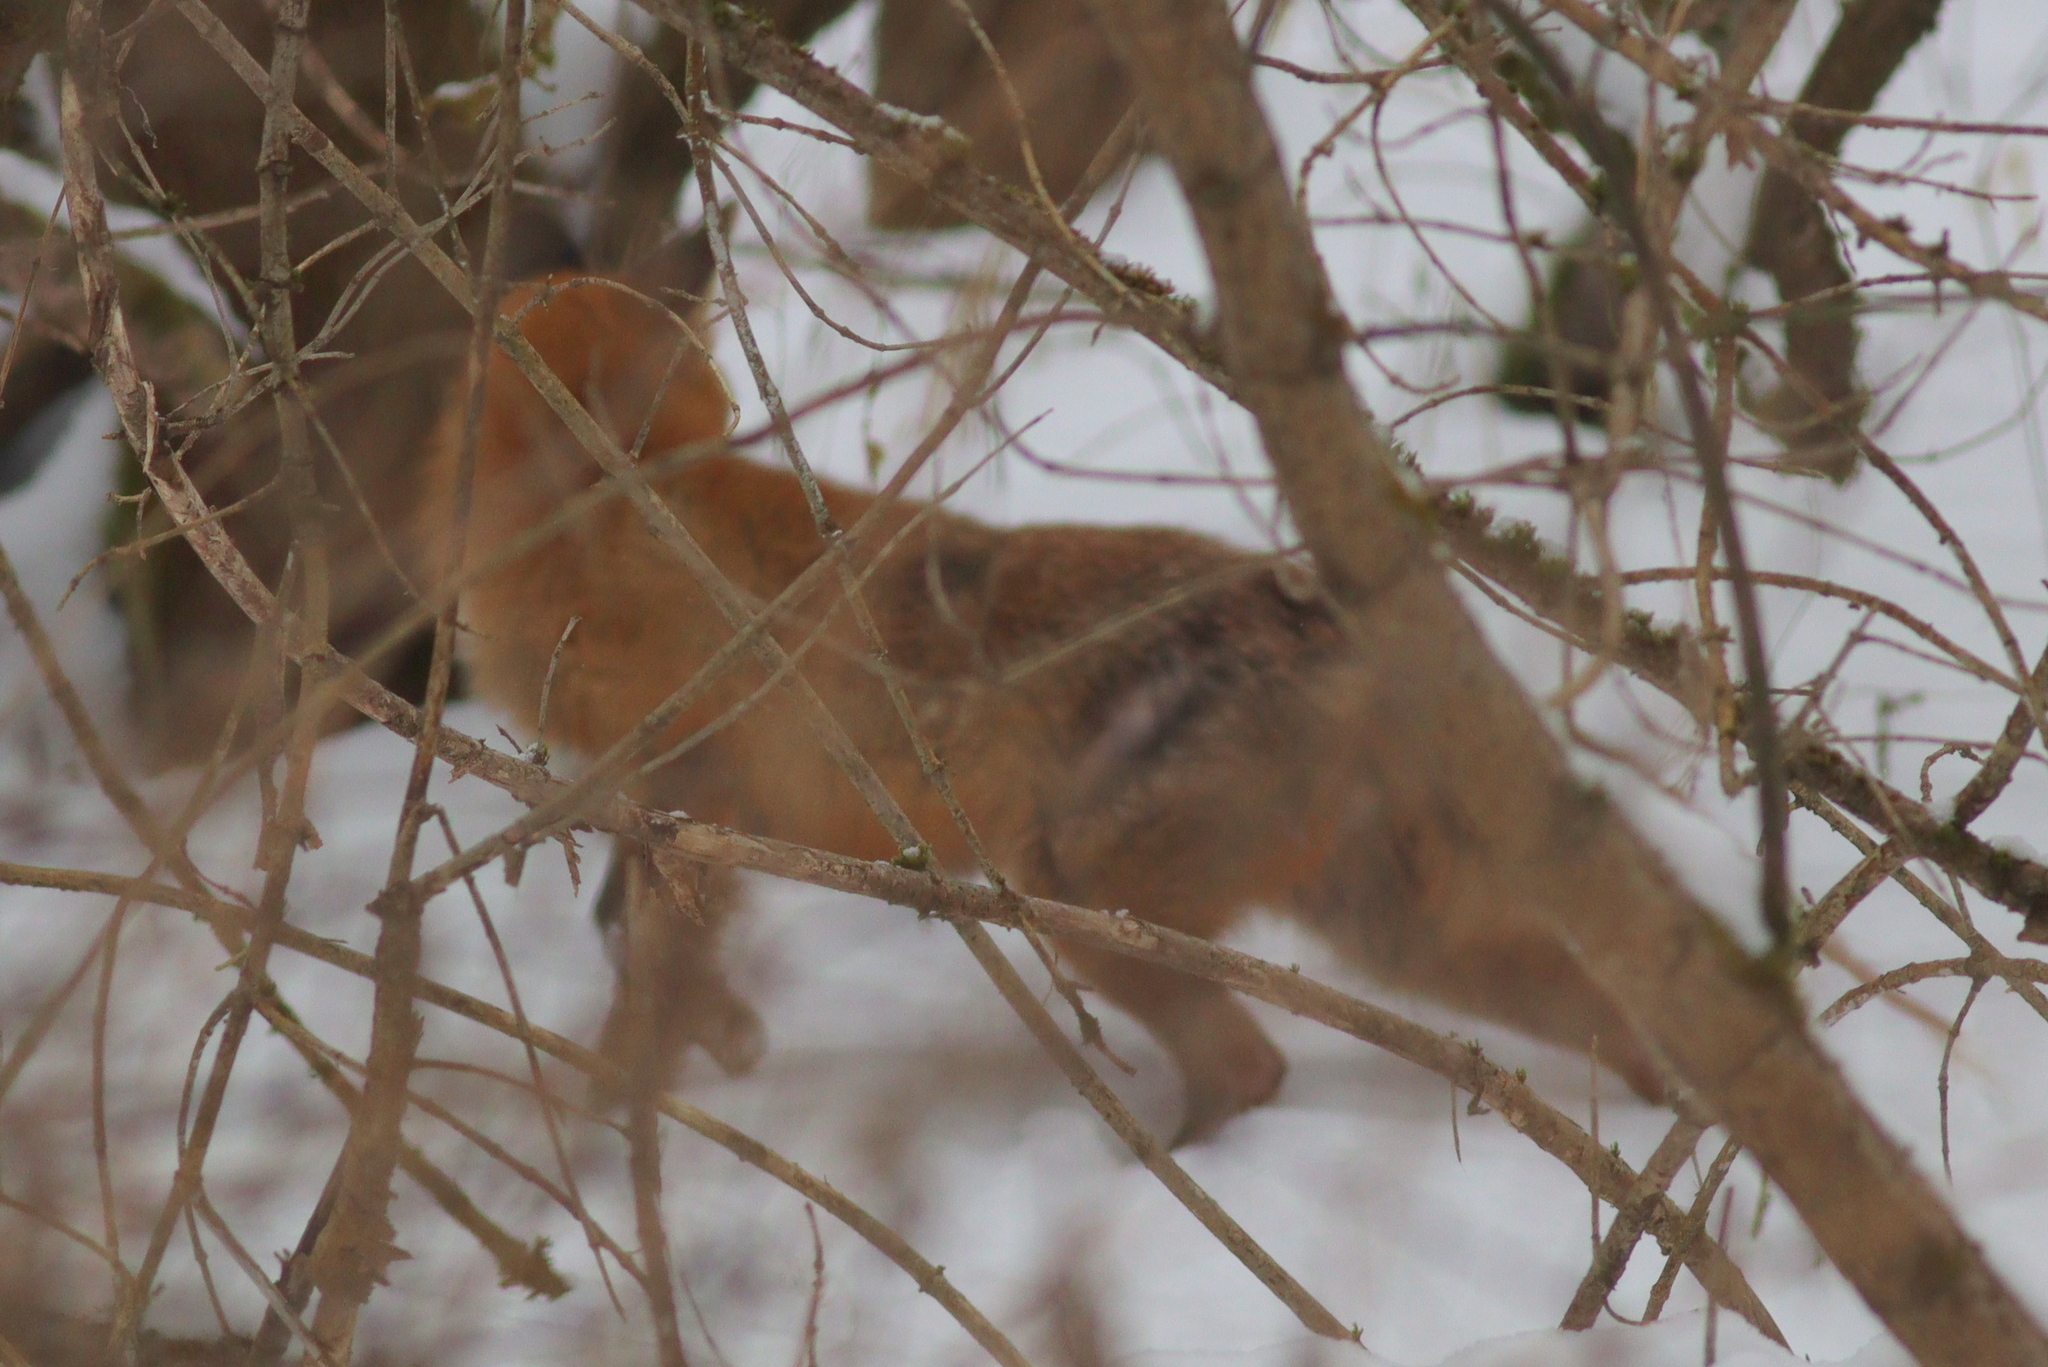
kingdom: Animalia
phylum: Chordata
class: Mammalia
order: Carnivora
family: Canidae
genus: Vulpes
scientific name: Vulpes vulpes
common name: Red fox
